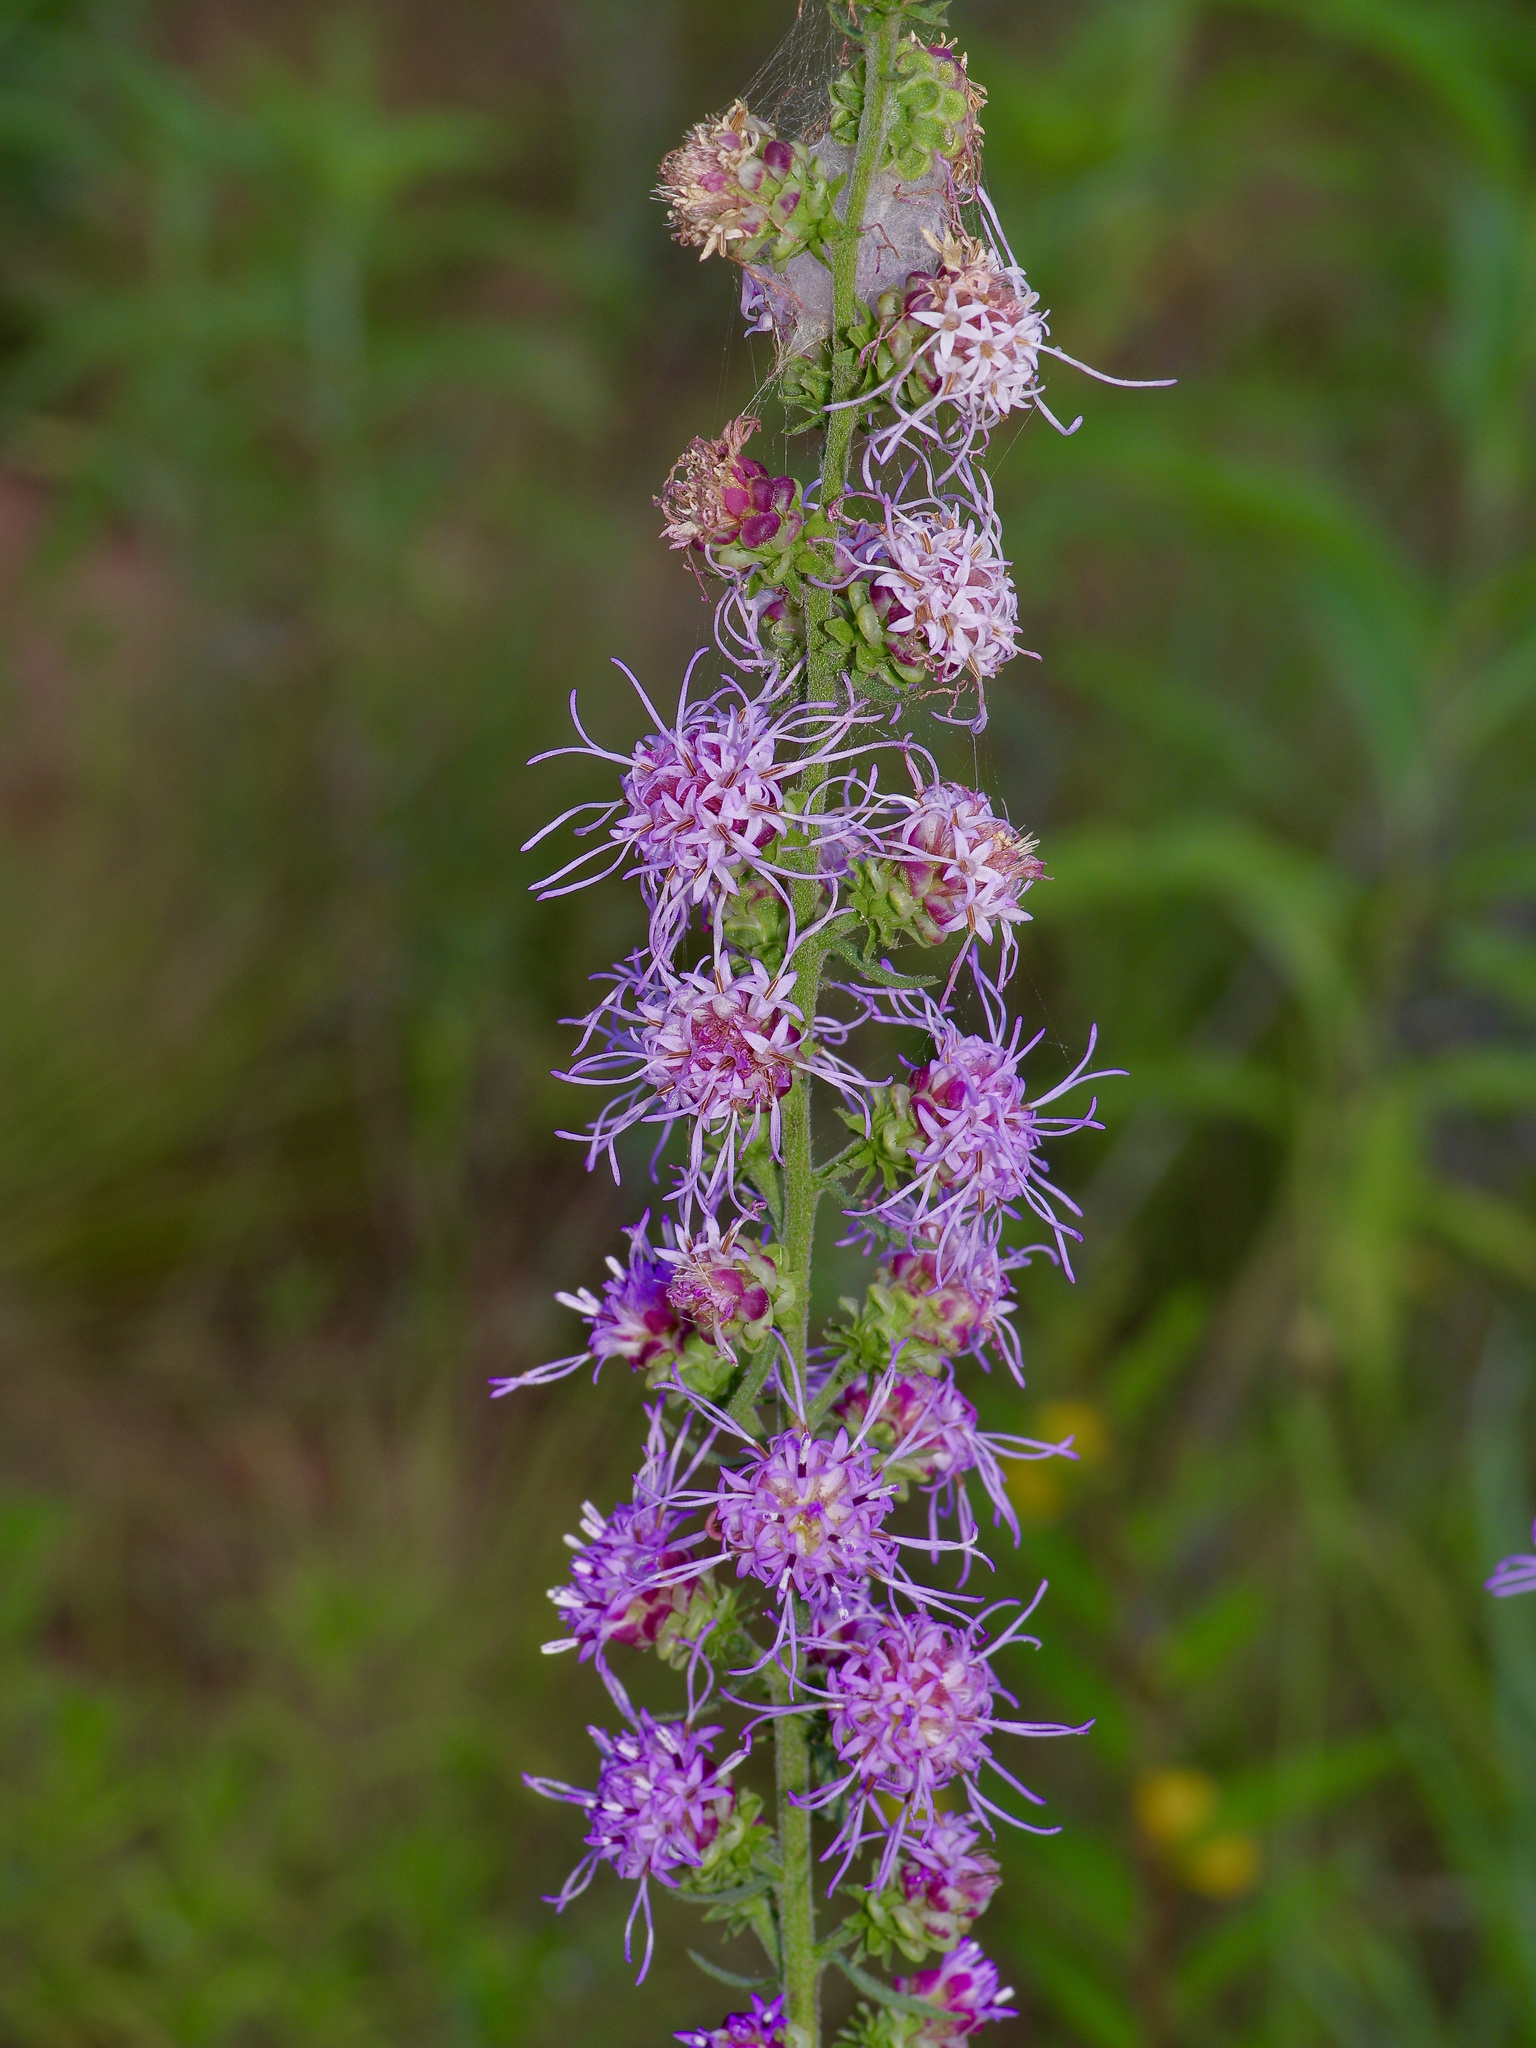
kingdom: Plantae
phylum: Tracheophyta
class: Magnoliopsida
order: Asterales
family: Asteraceae
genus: Liatris
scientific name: Liatris aspera
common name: Lacerate blazing-star
